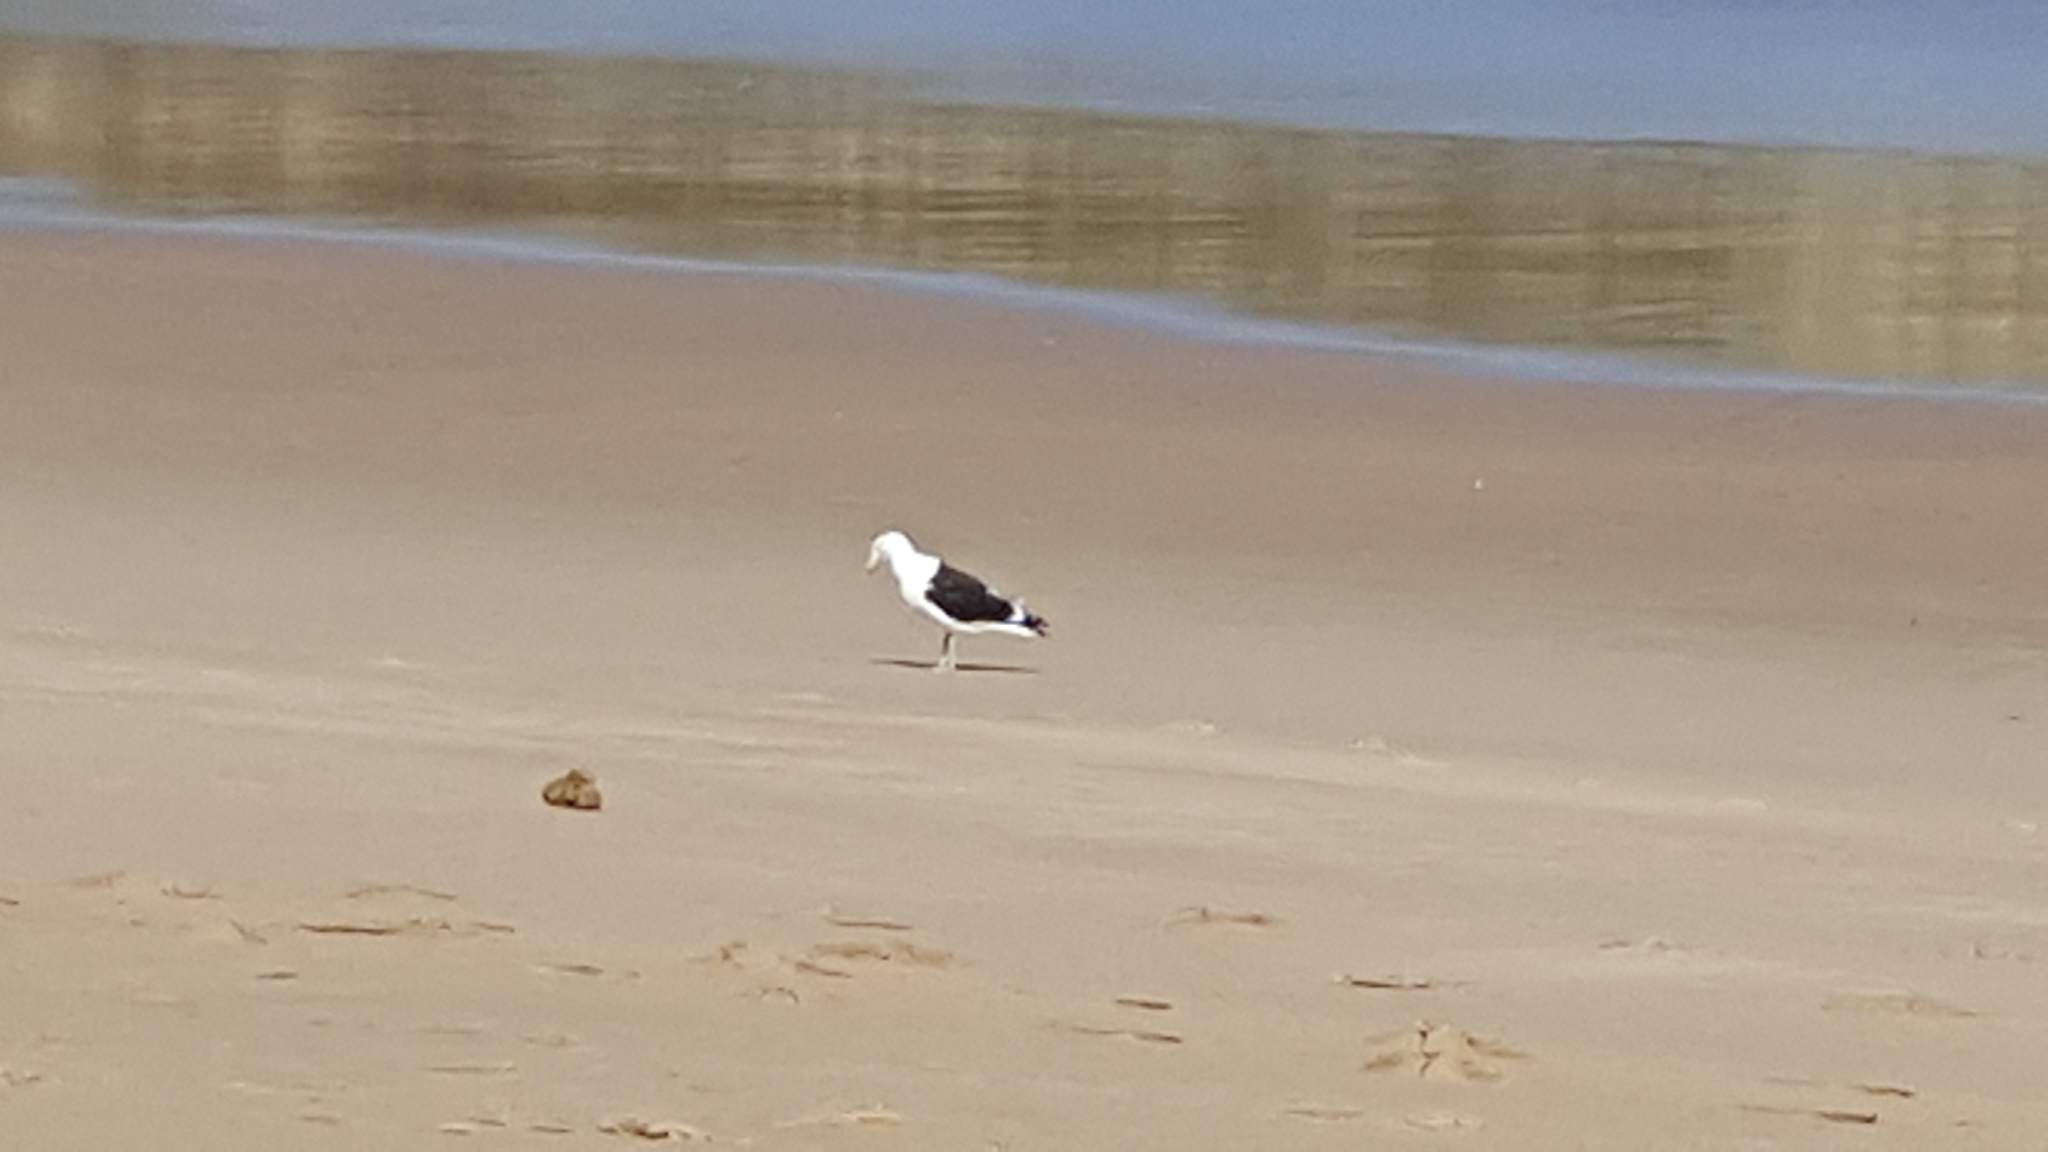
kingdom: Animalia
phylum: Chordata
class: Aves
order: Charadriiformes
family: Laridae
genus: Larus
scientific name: Larus dominicanus
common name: Kelp gull
